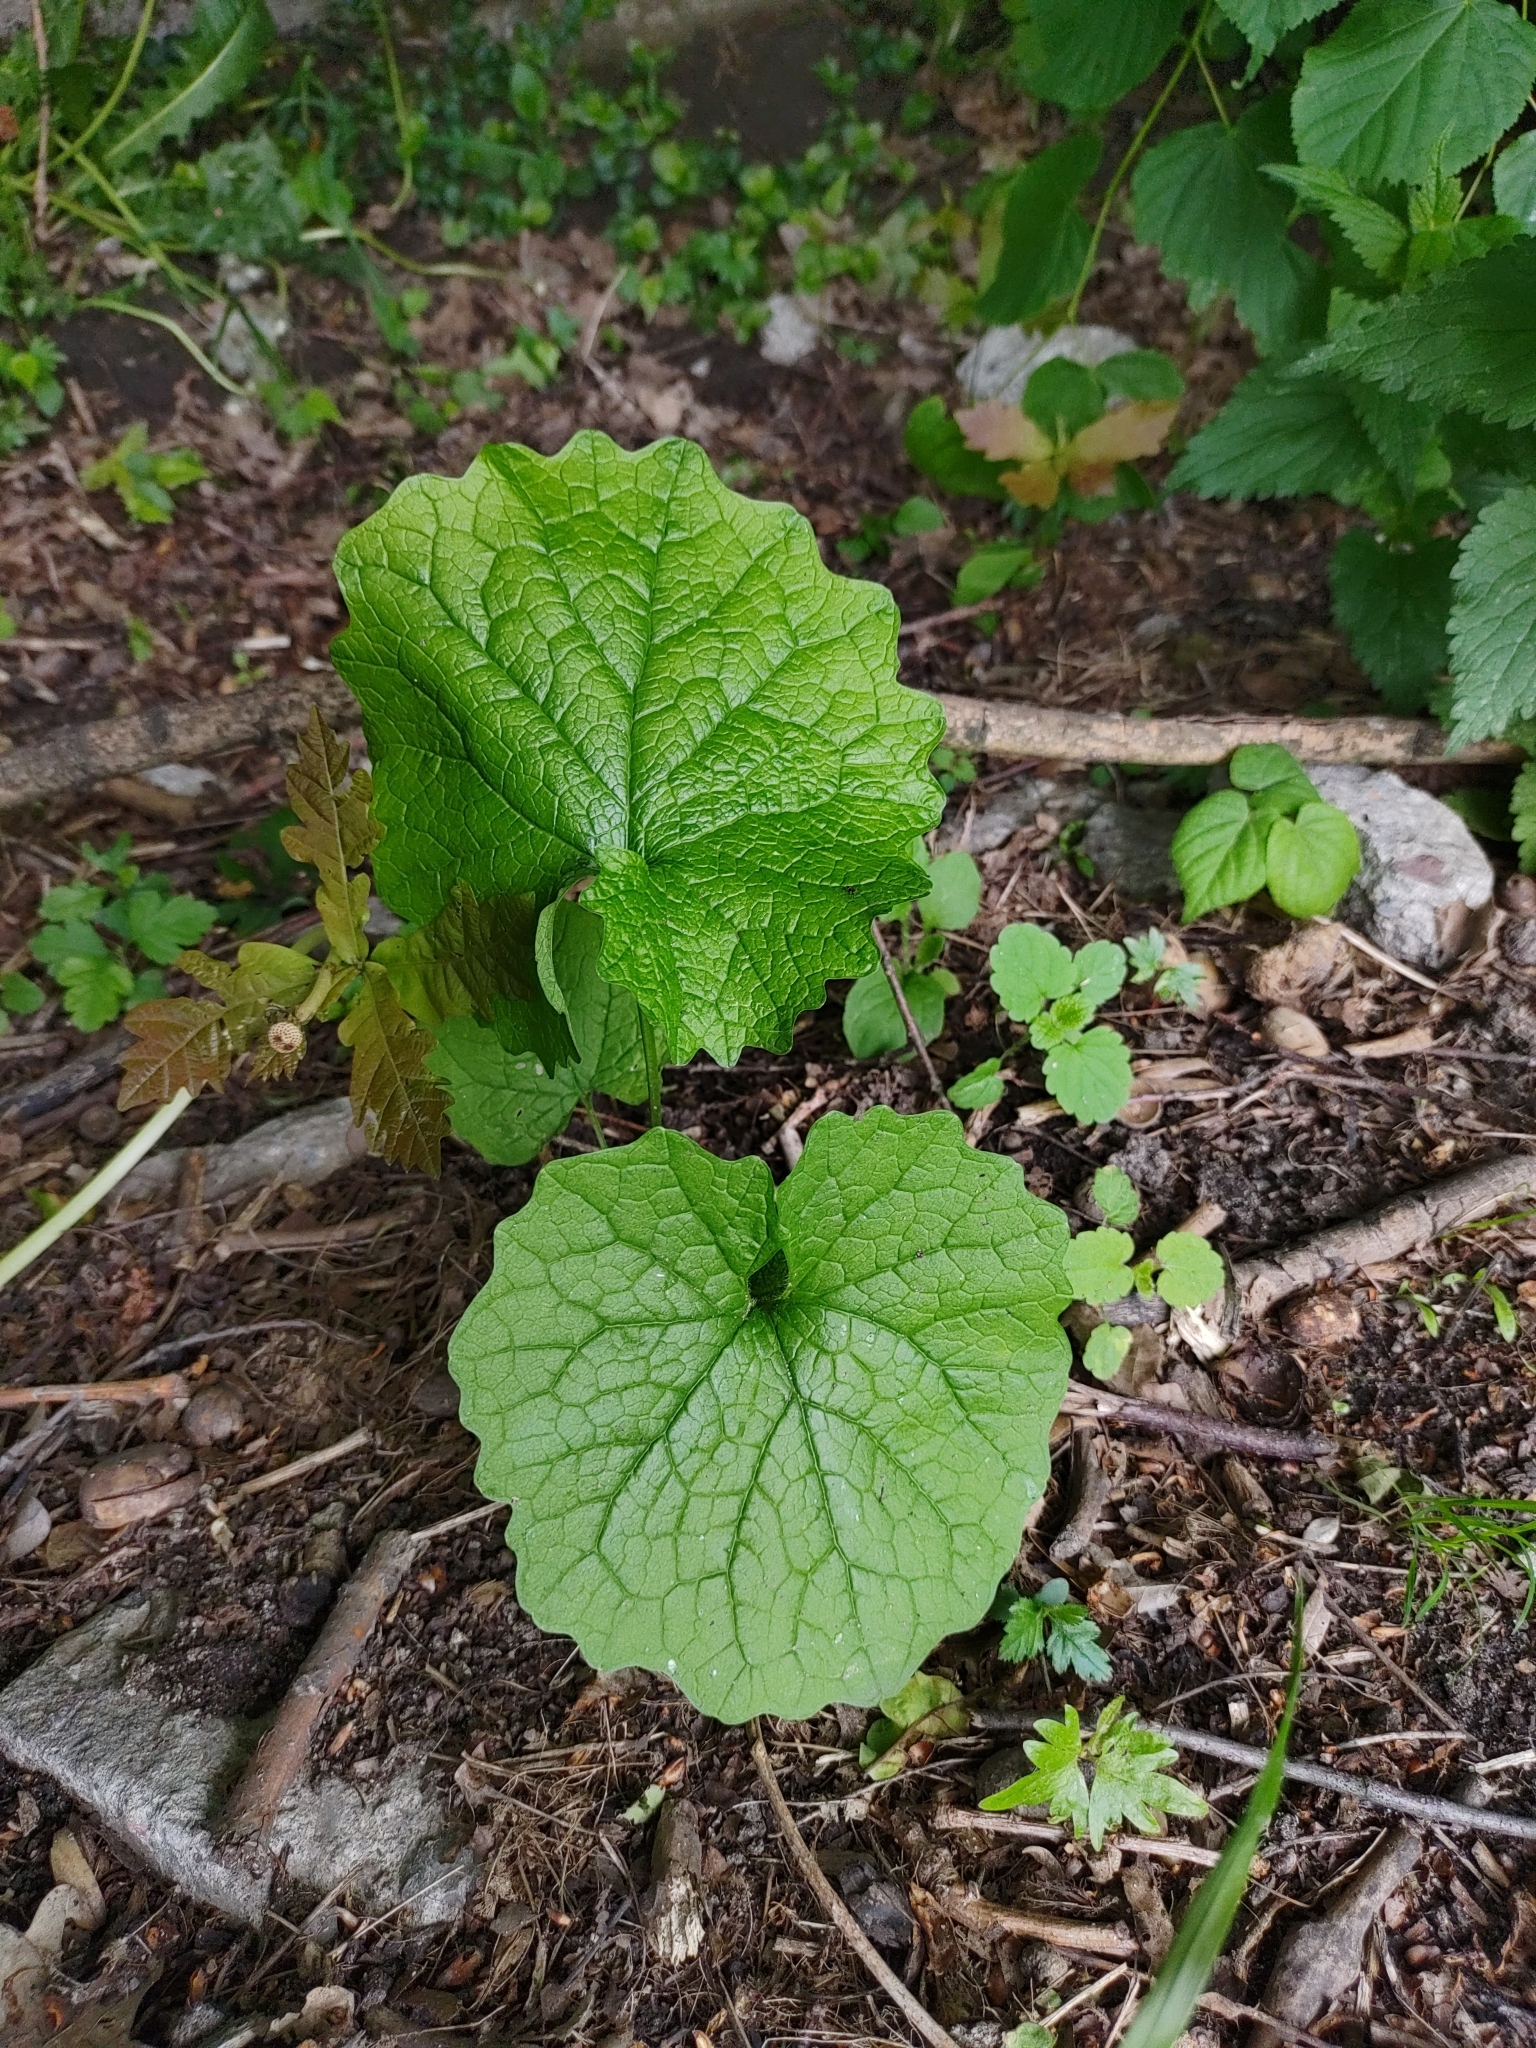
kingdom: Plantae
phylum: Tracheophyta
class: Magnoliopsida
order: Brassicales
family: Brassicaceae
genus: Alliaria
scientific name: Alliaria petiolata
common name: Garlic mustard
